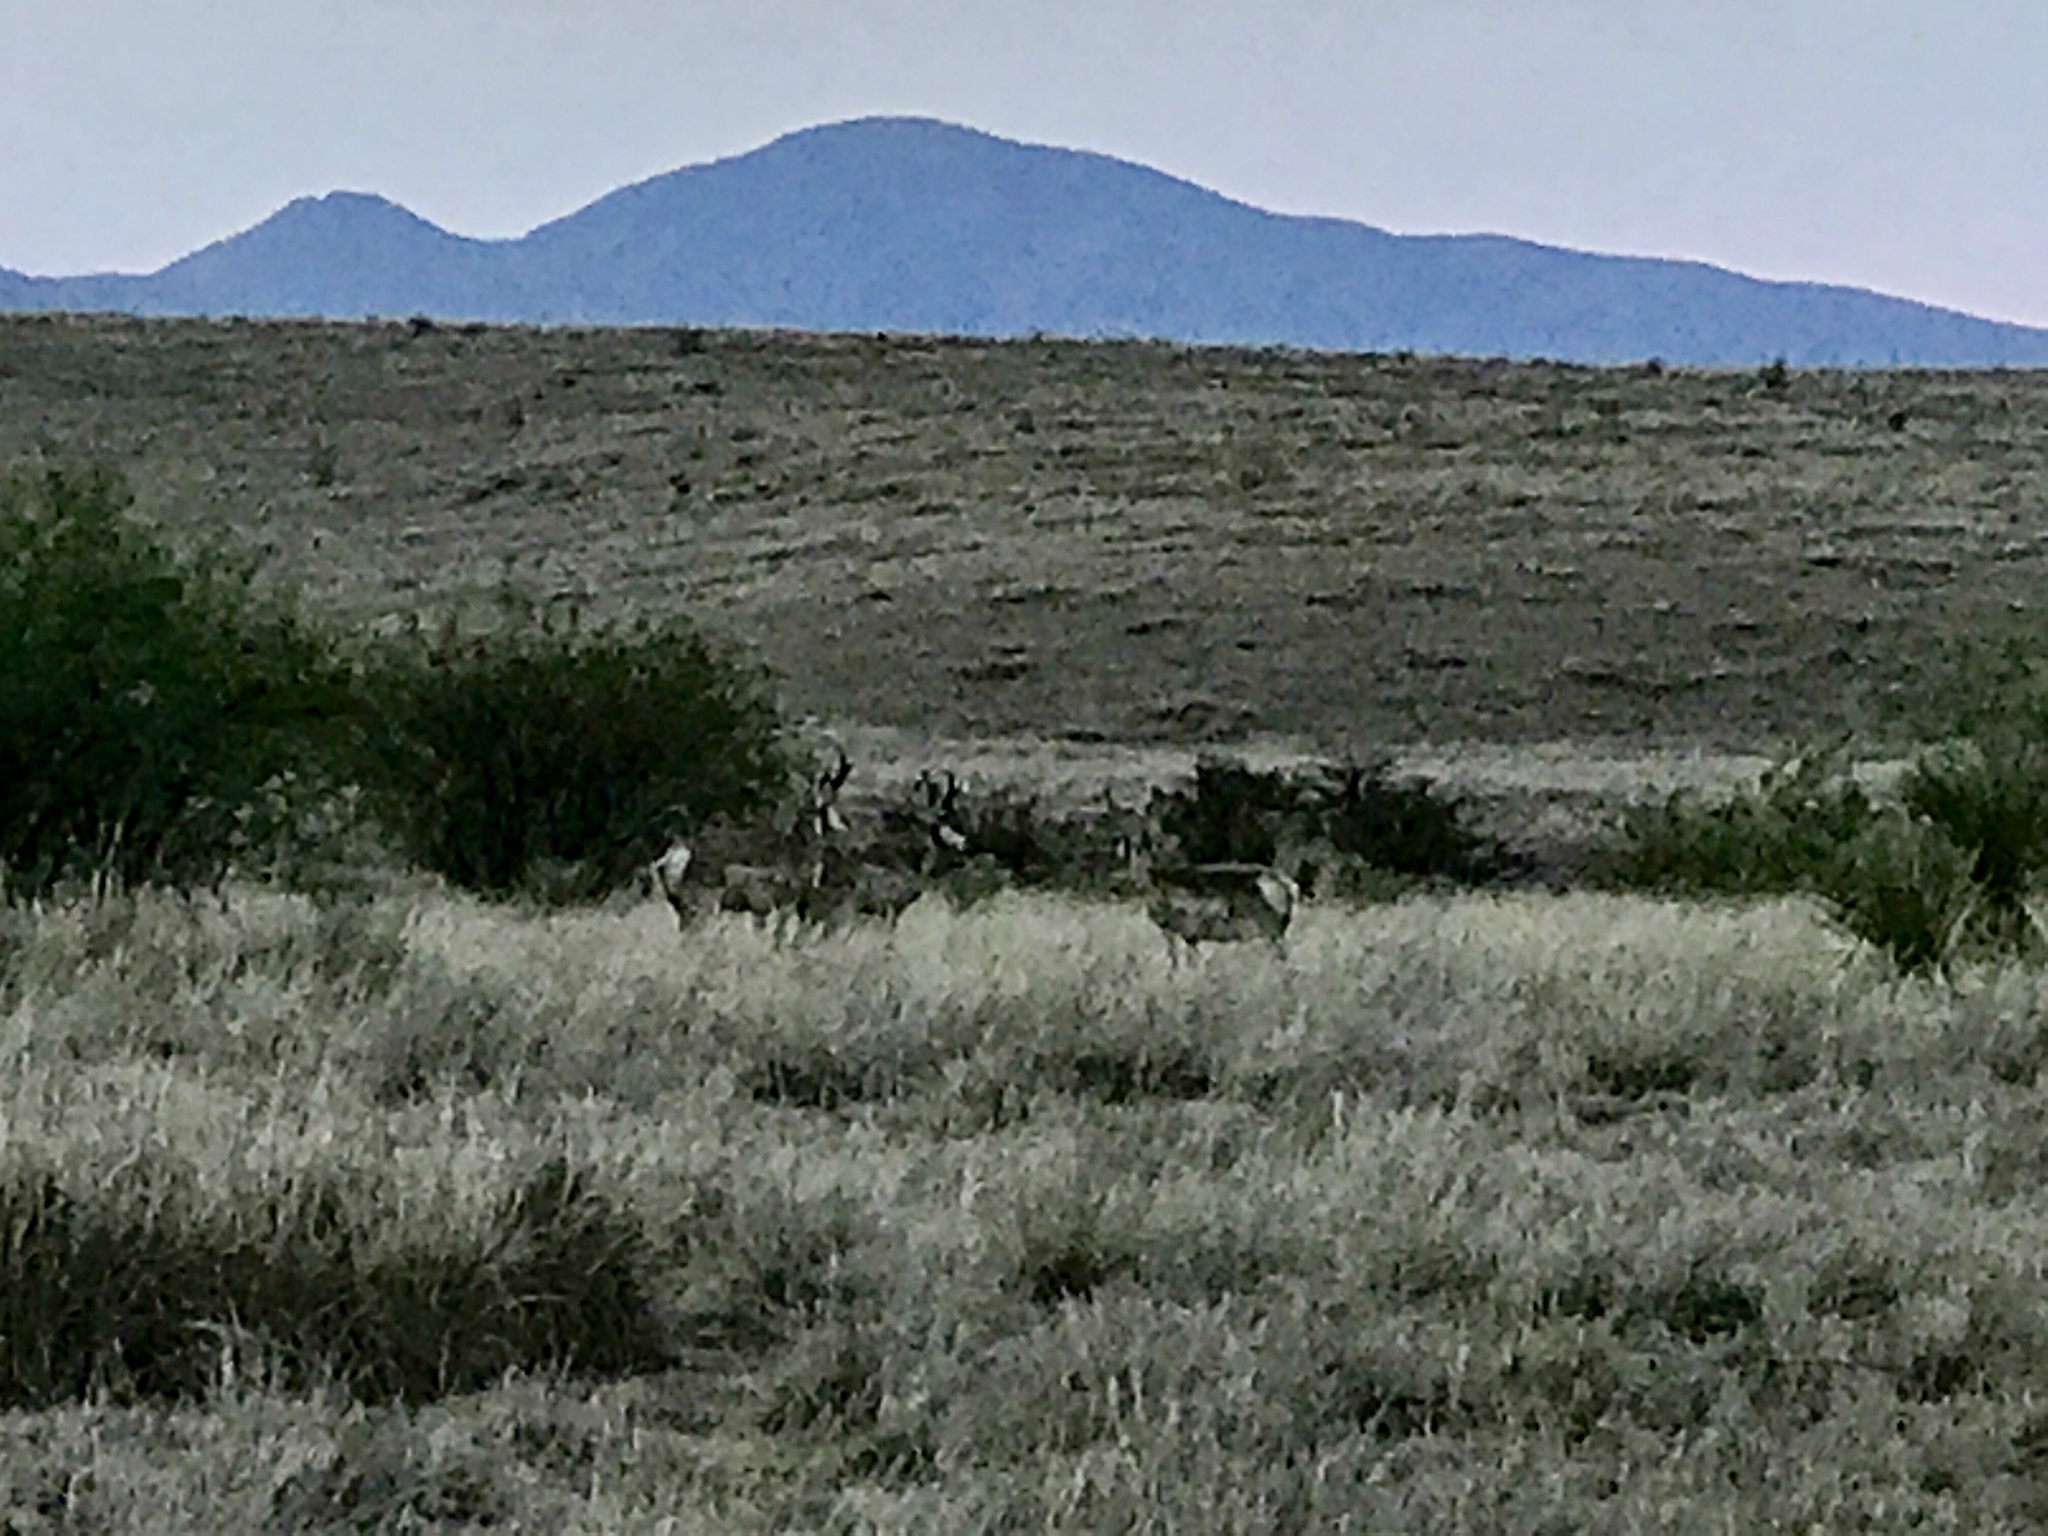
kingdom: Animalia
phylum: Chordata
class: Mammalia
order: Artiodactyla
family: Antilocapridae
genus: Antilocapra
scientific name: Antilocapra americana
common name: Pronghorn
